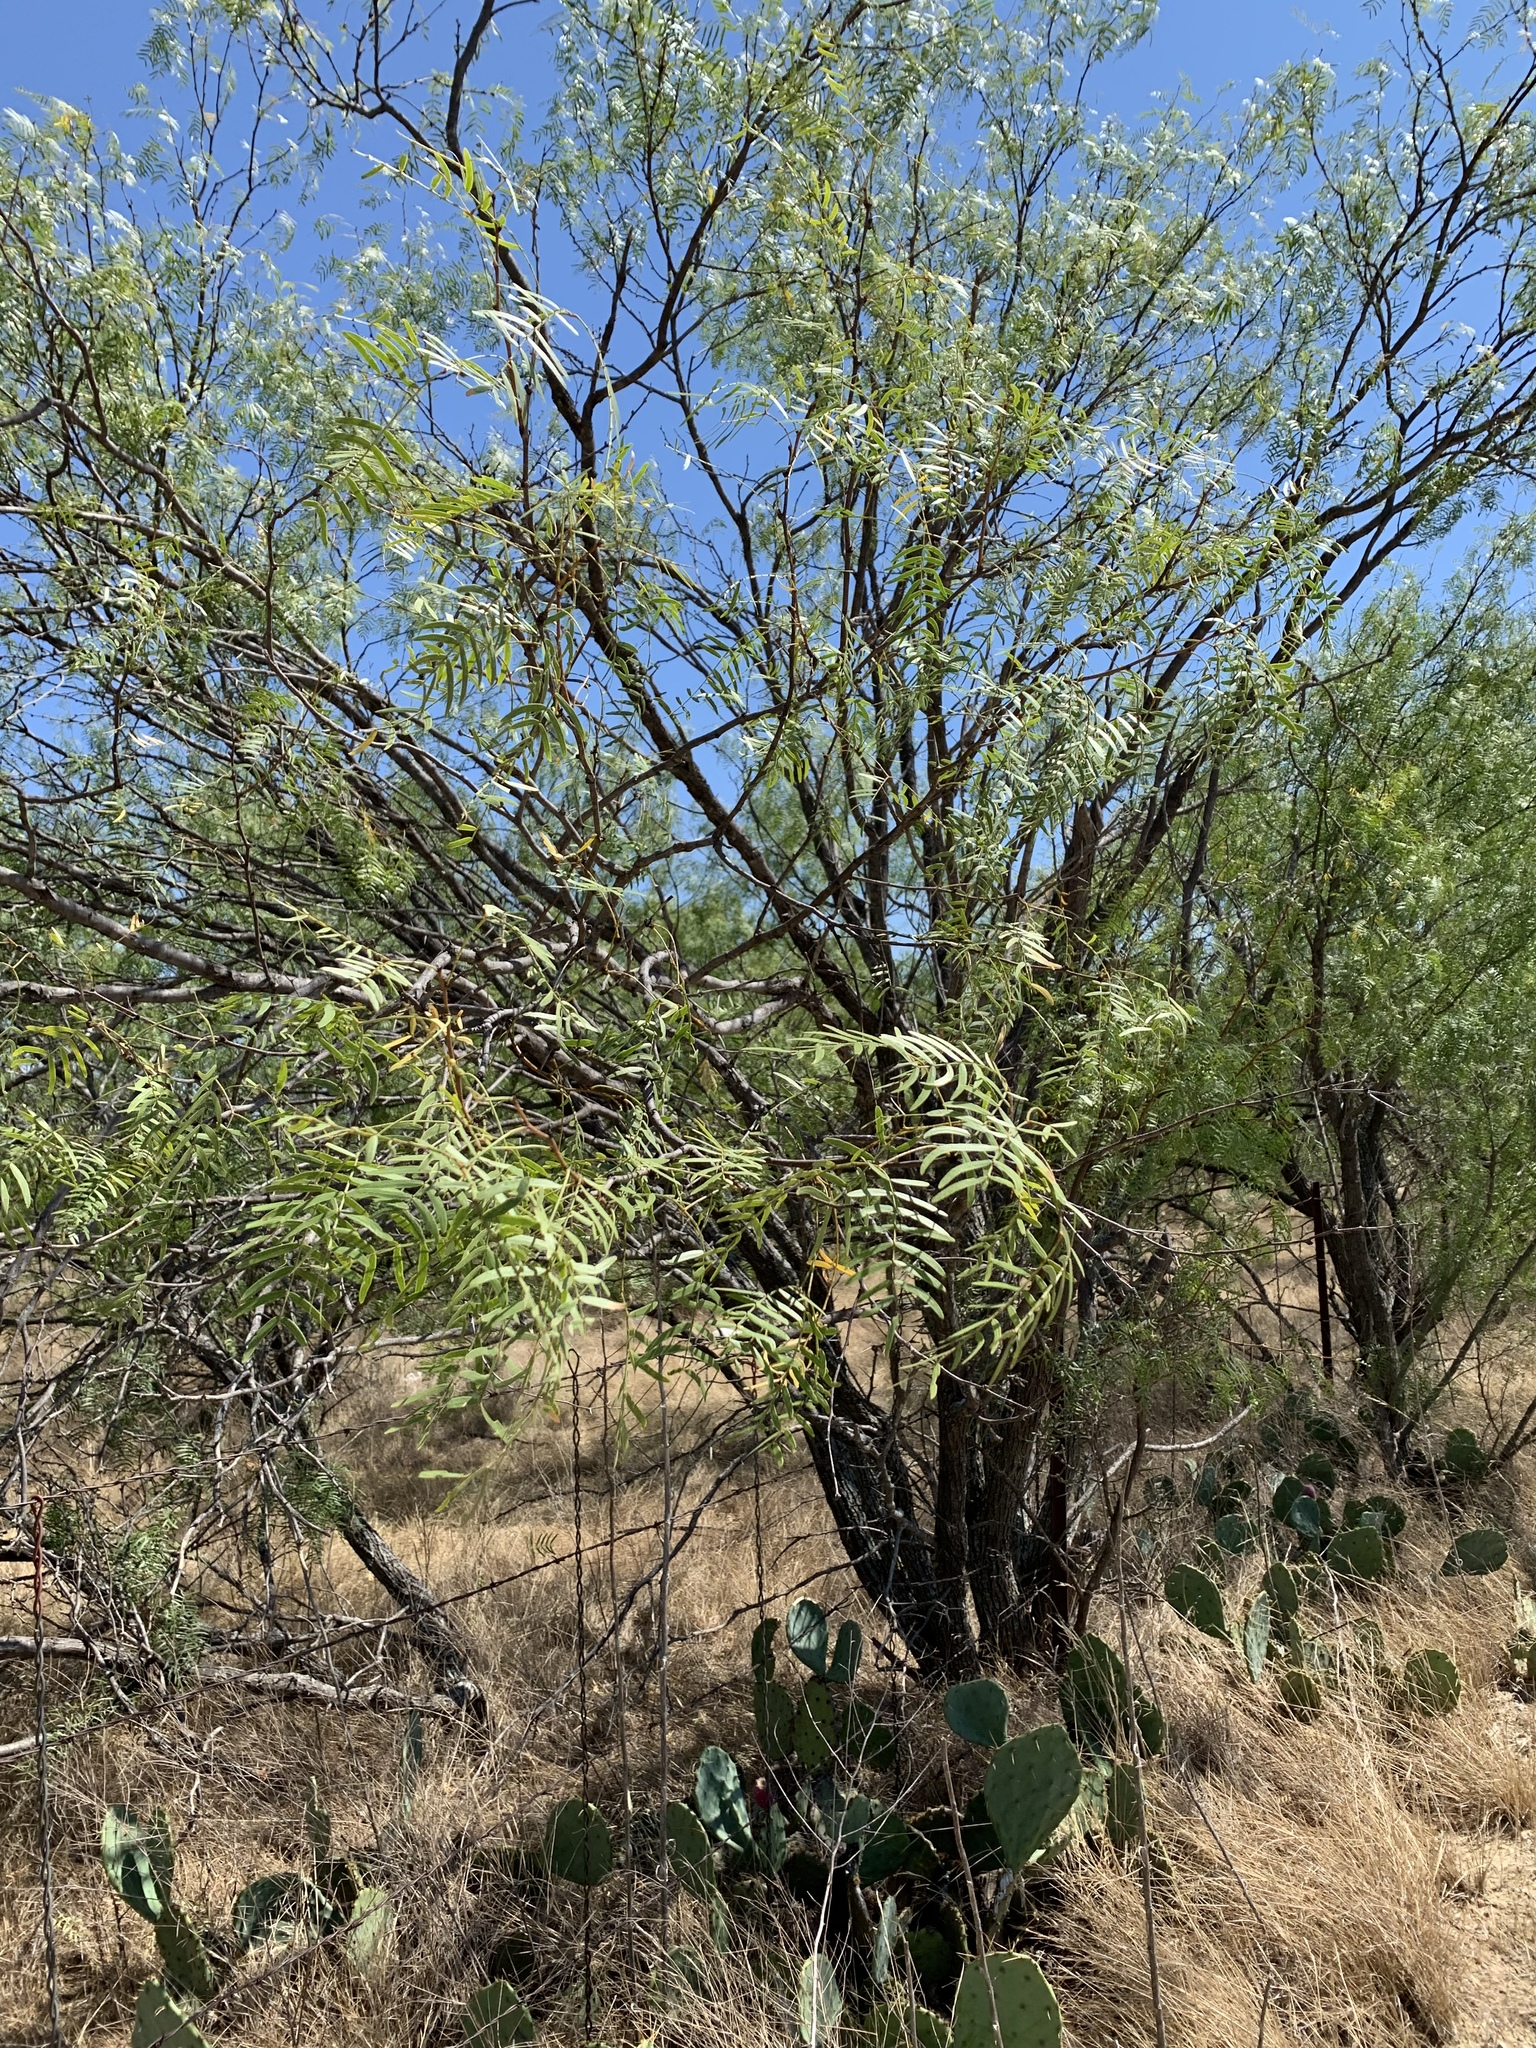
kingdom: Plantae
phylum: Tracheophyta
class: Magnoliopsida
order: Fabales
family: Fabaceae
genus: Prosopis
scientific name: Prosopis glandulosa
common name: Honey mesquite
